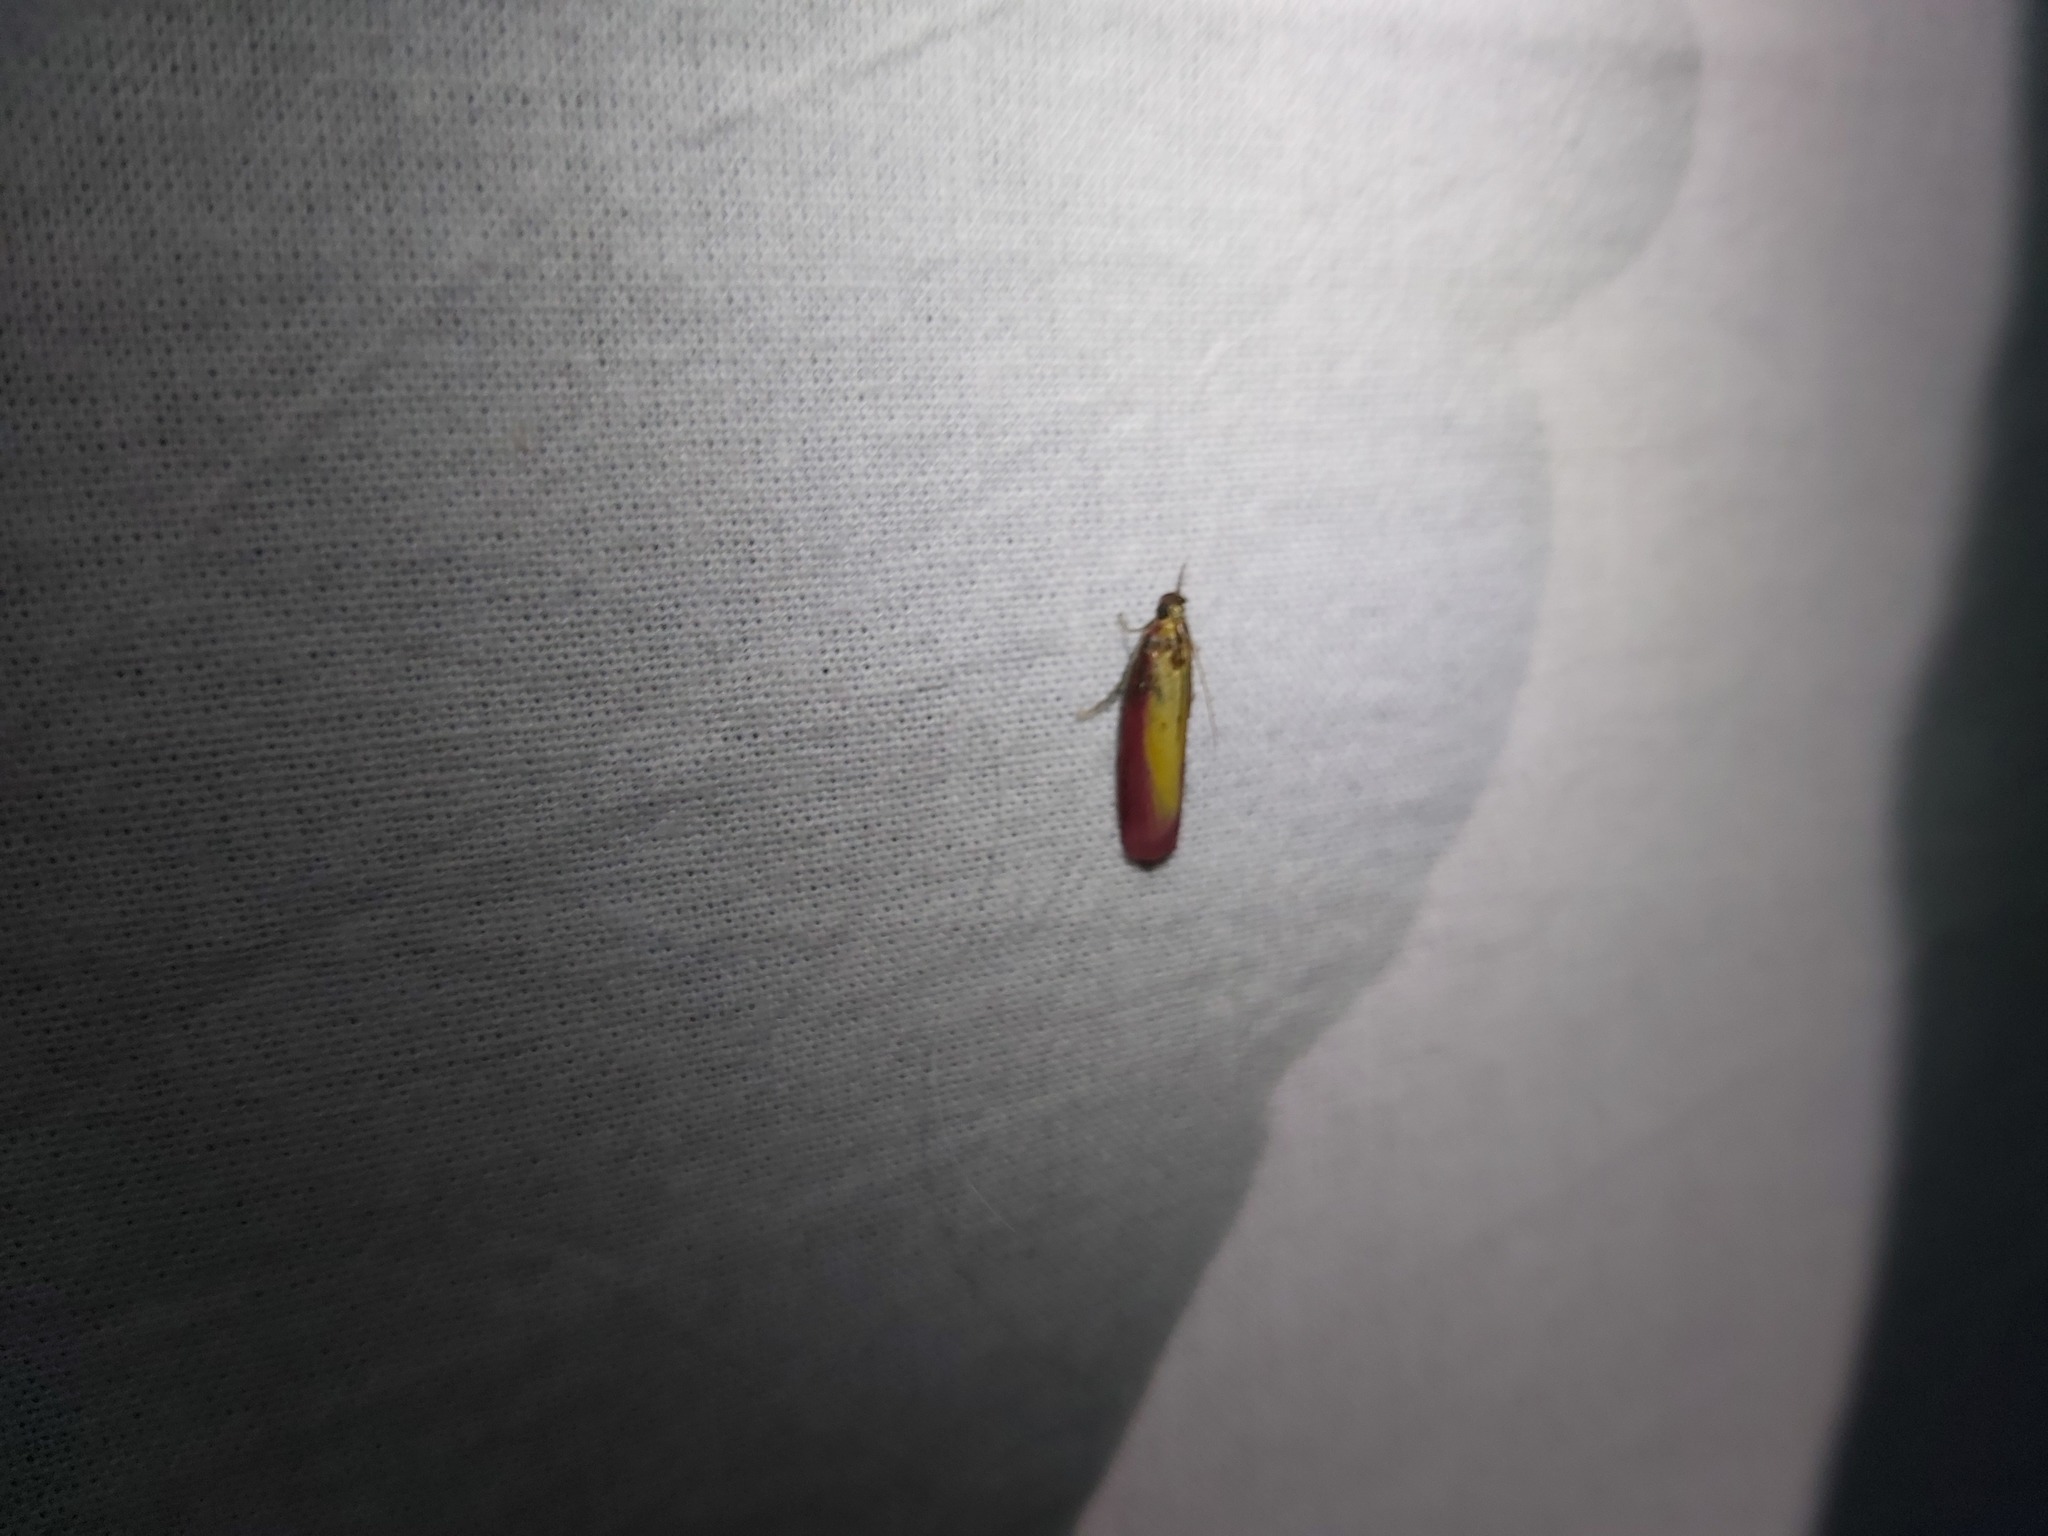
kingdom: Animalia
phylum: Arthropoda
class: Insecta
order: Lepidoptera
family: Pyralidae
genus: Oncocera
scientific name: Oncocera semirubella
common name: Rosy-striped knot-horn
